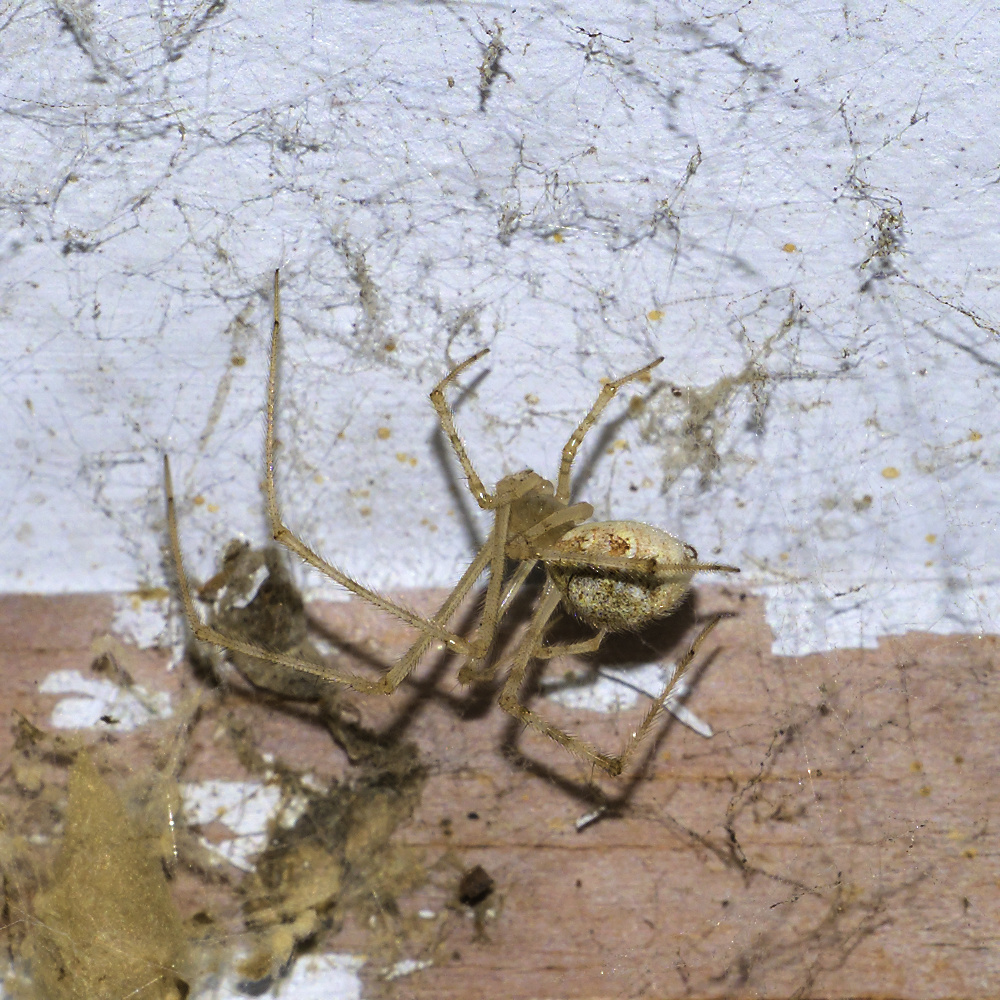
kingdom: Animalia
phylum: Arthropoda
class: Arachnida
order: Araneae
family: Theridiidae
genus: Cryptachaea
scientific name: Cryptachaea gigantipes
